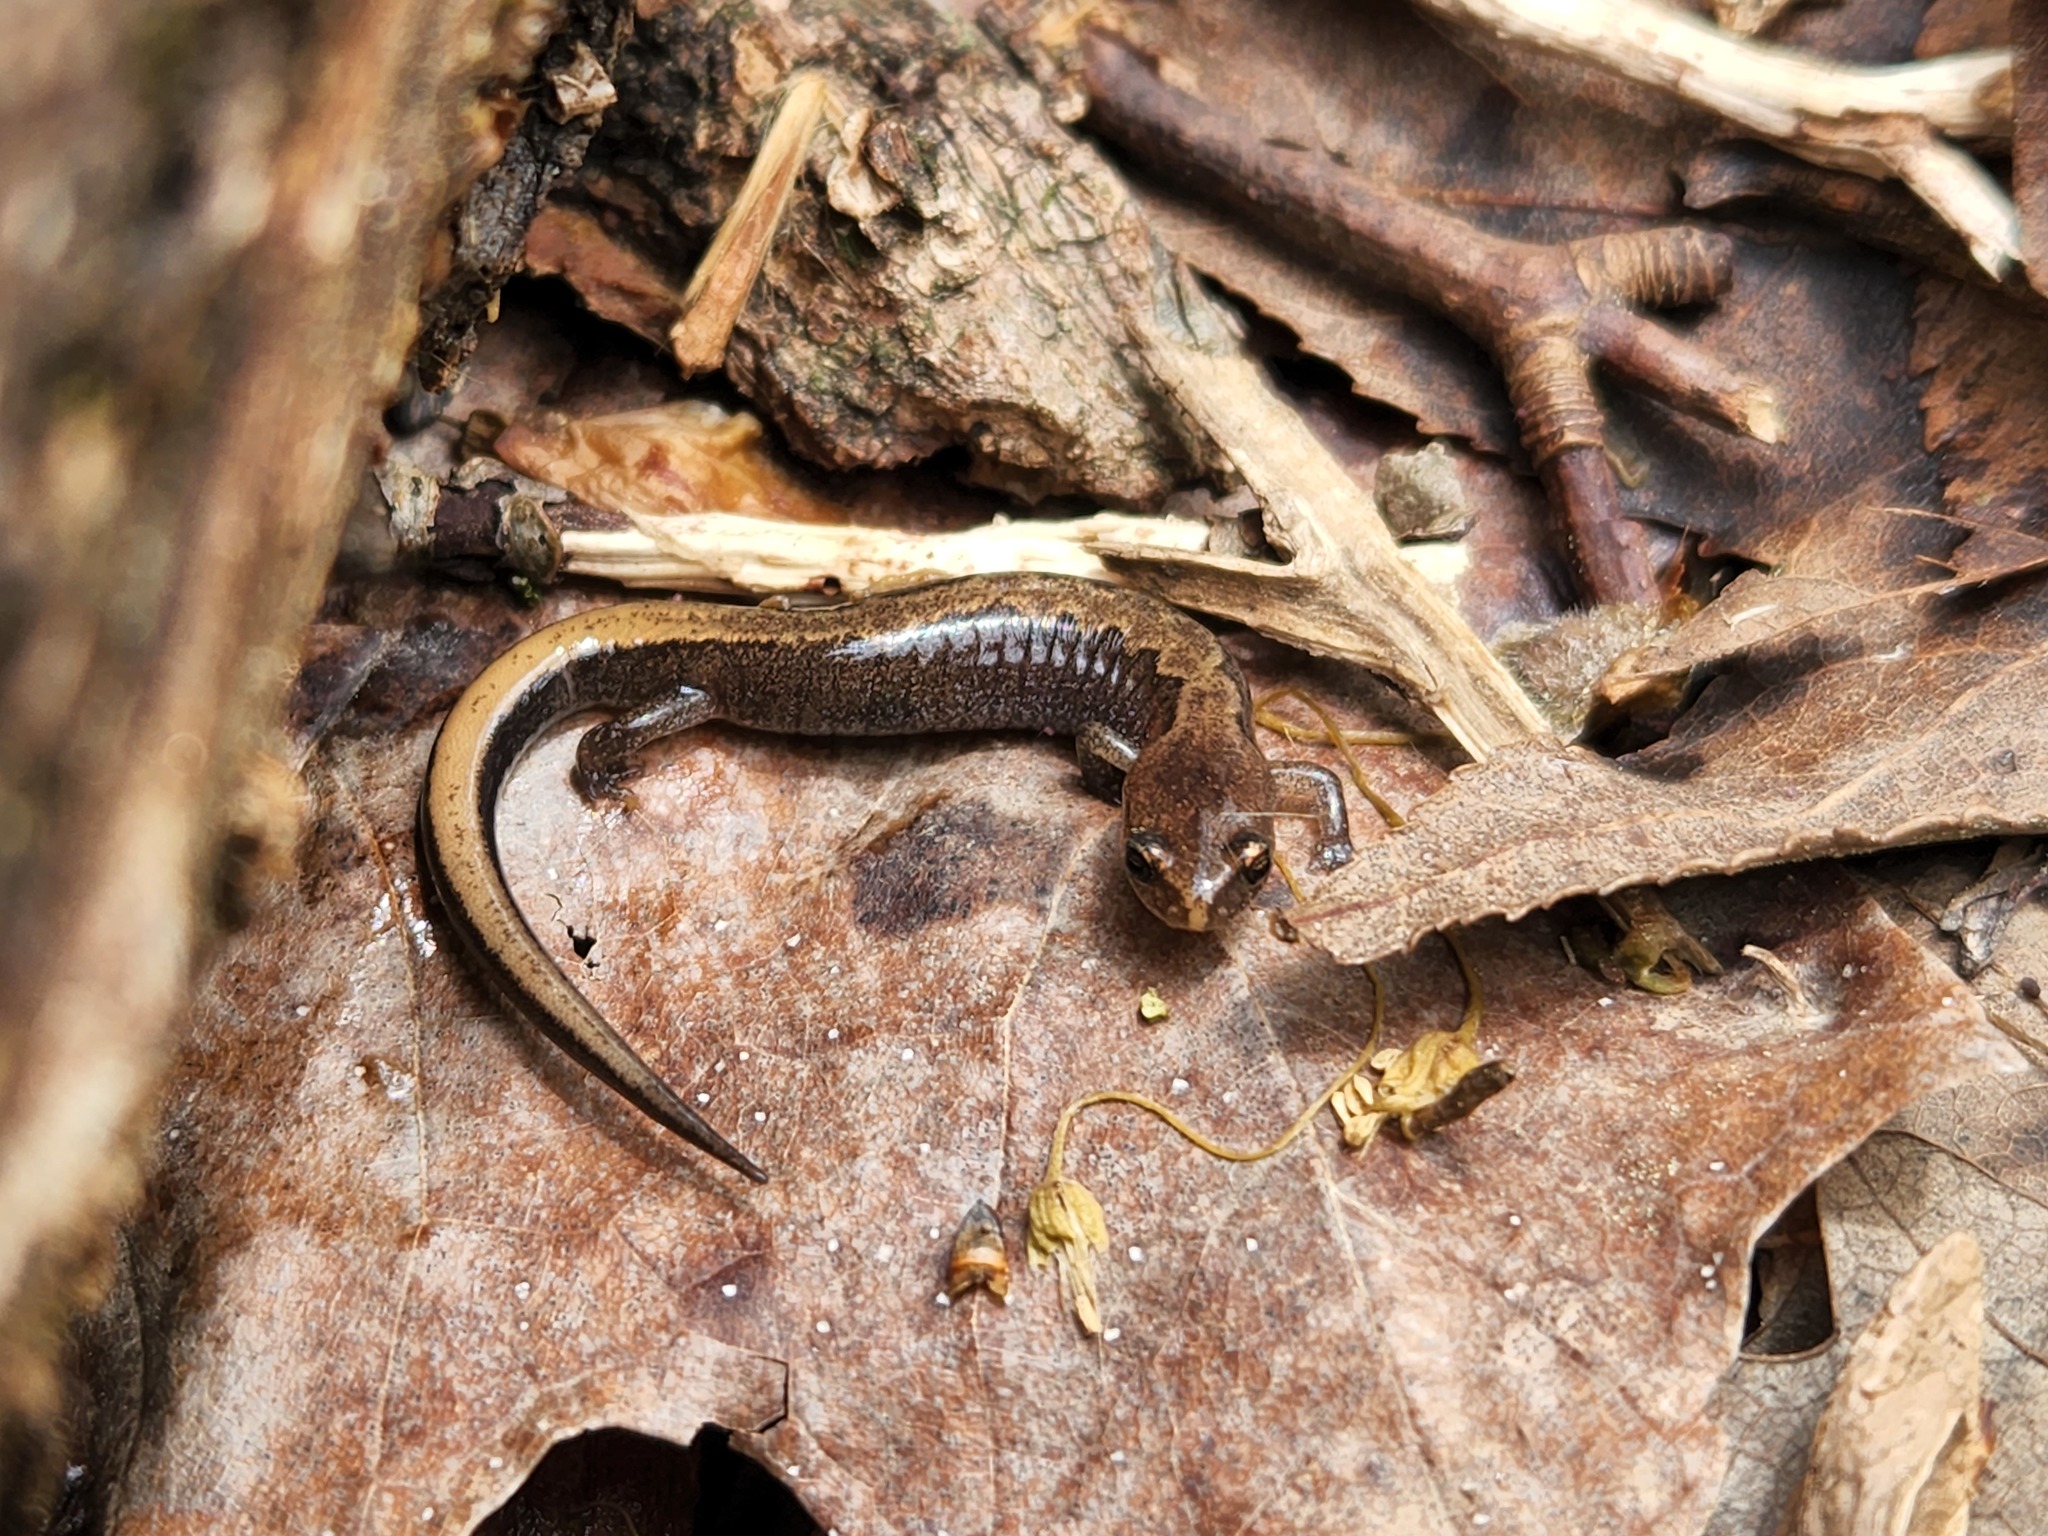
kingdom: Animalia
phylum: Chordata
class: Amphibia
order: Caudata
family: Plethodontidae
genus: Plethodon
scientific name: Plethodon dorsalis
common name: Northern zigzag salamander
